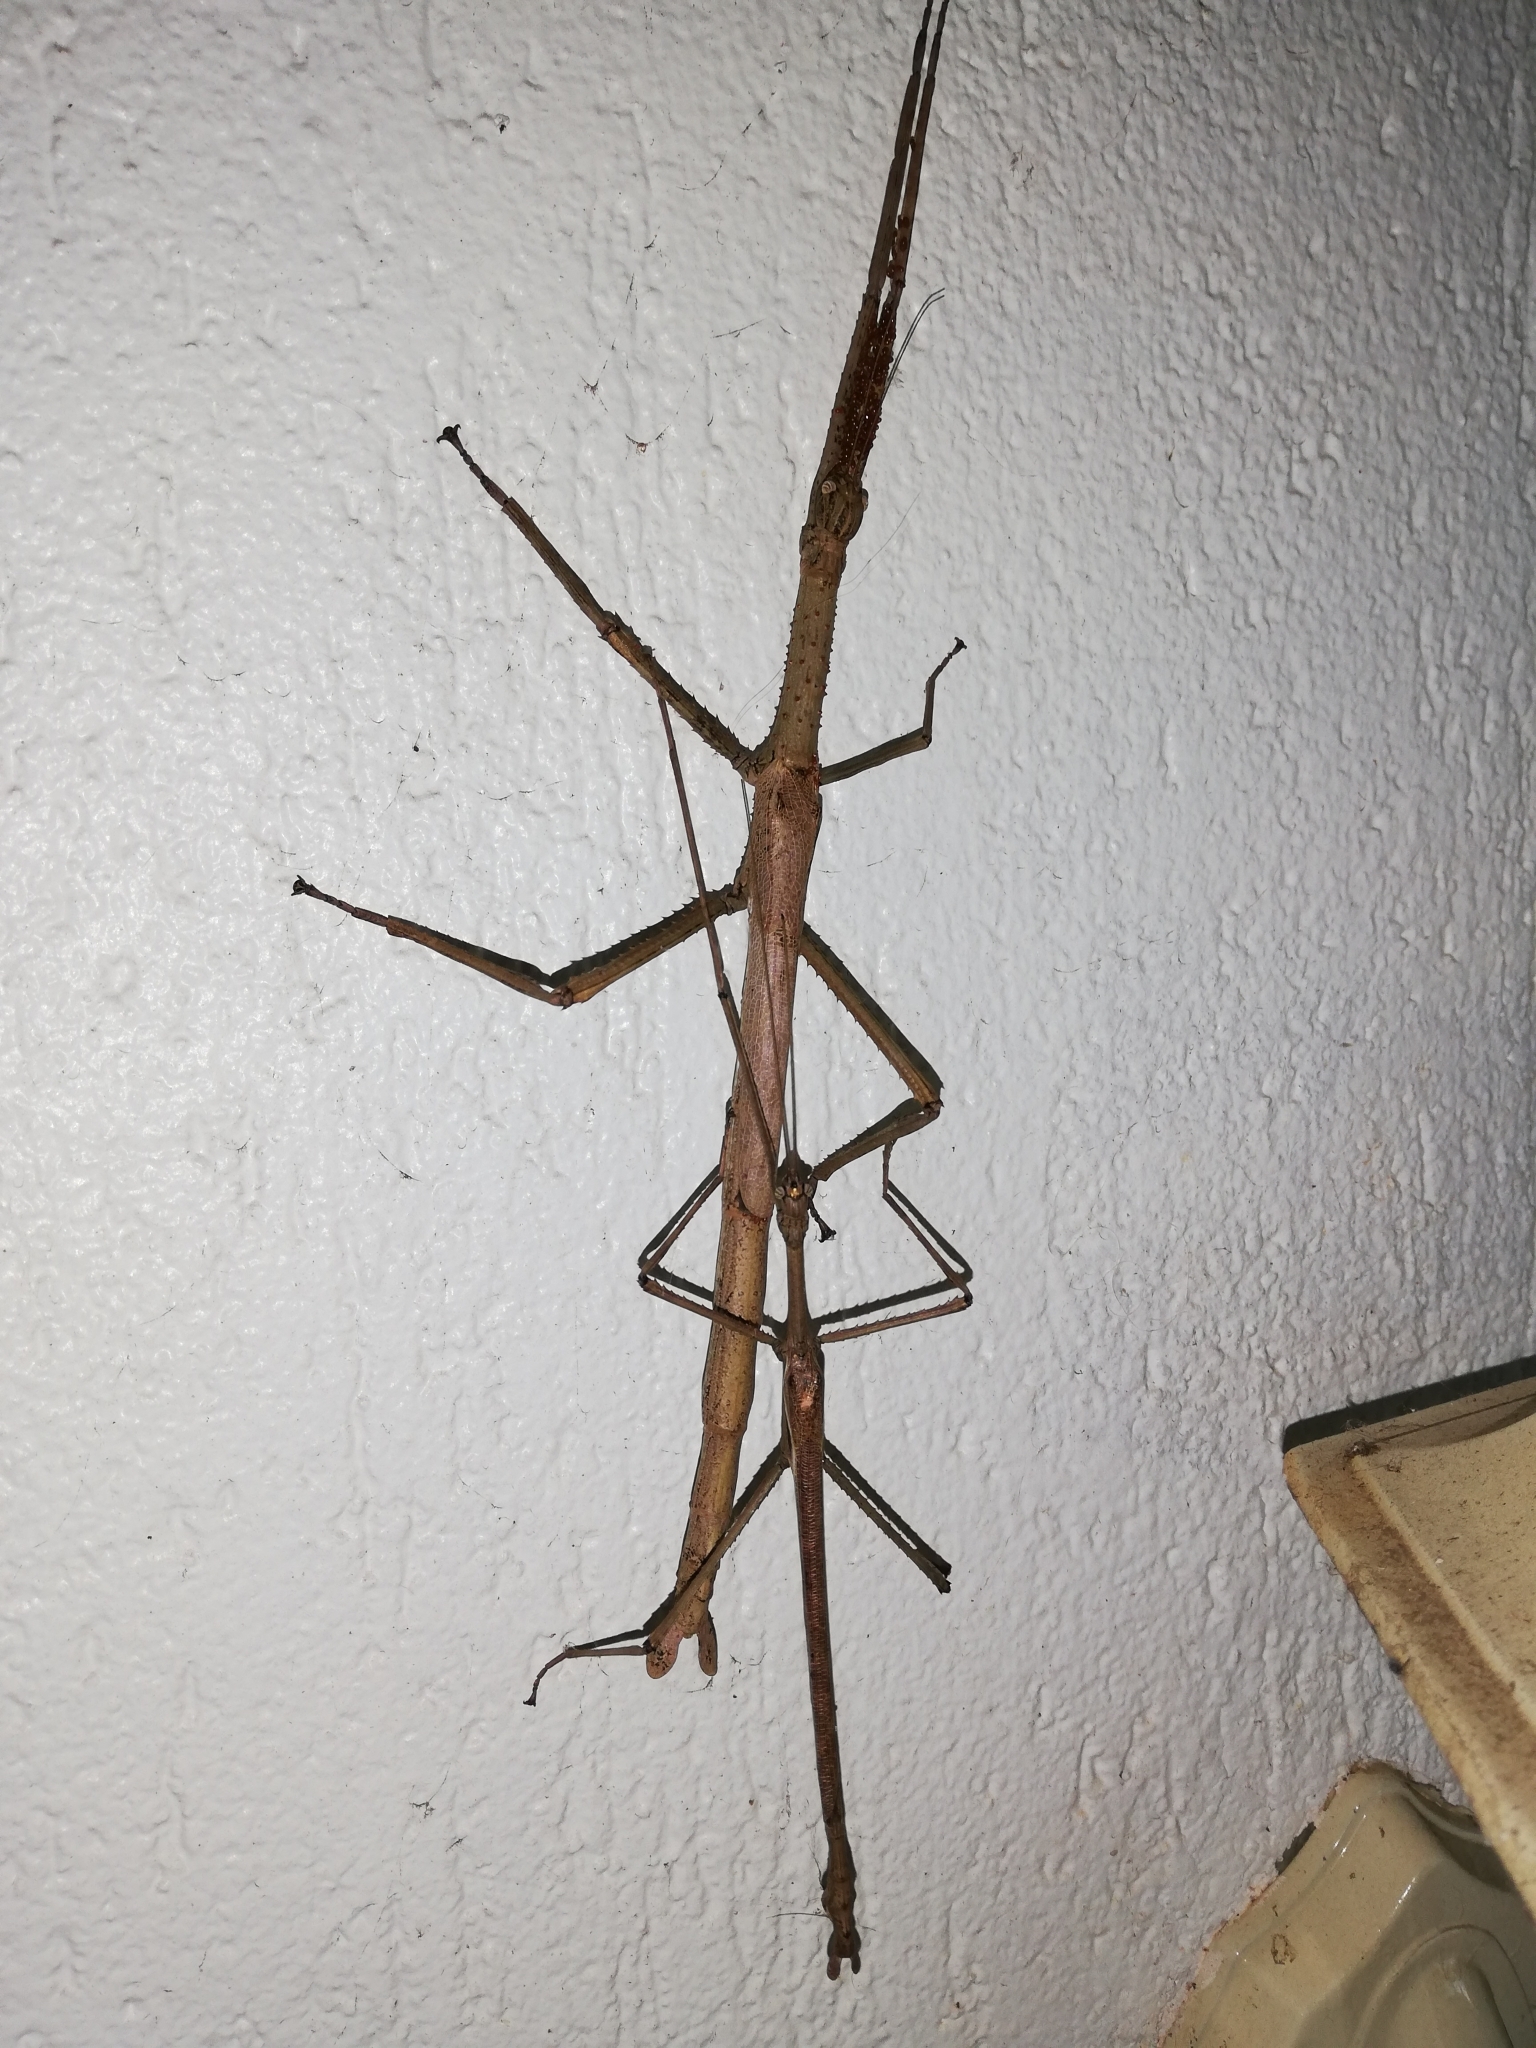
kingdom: Animalia
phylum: Arthropoda
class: Insecta
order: Phasmida
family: Phasmatidae
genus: Anchiale
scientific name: Anchiale briareus
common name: Strong stick insect
